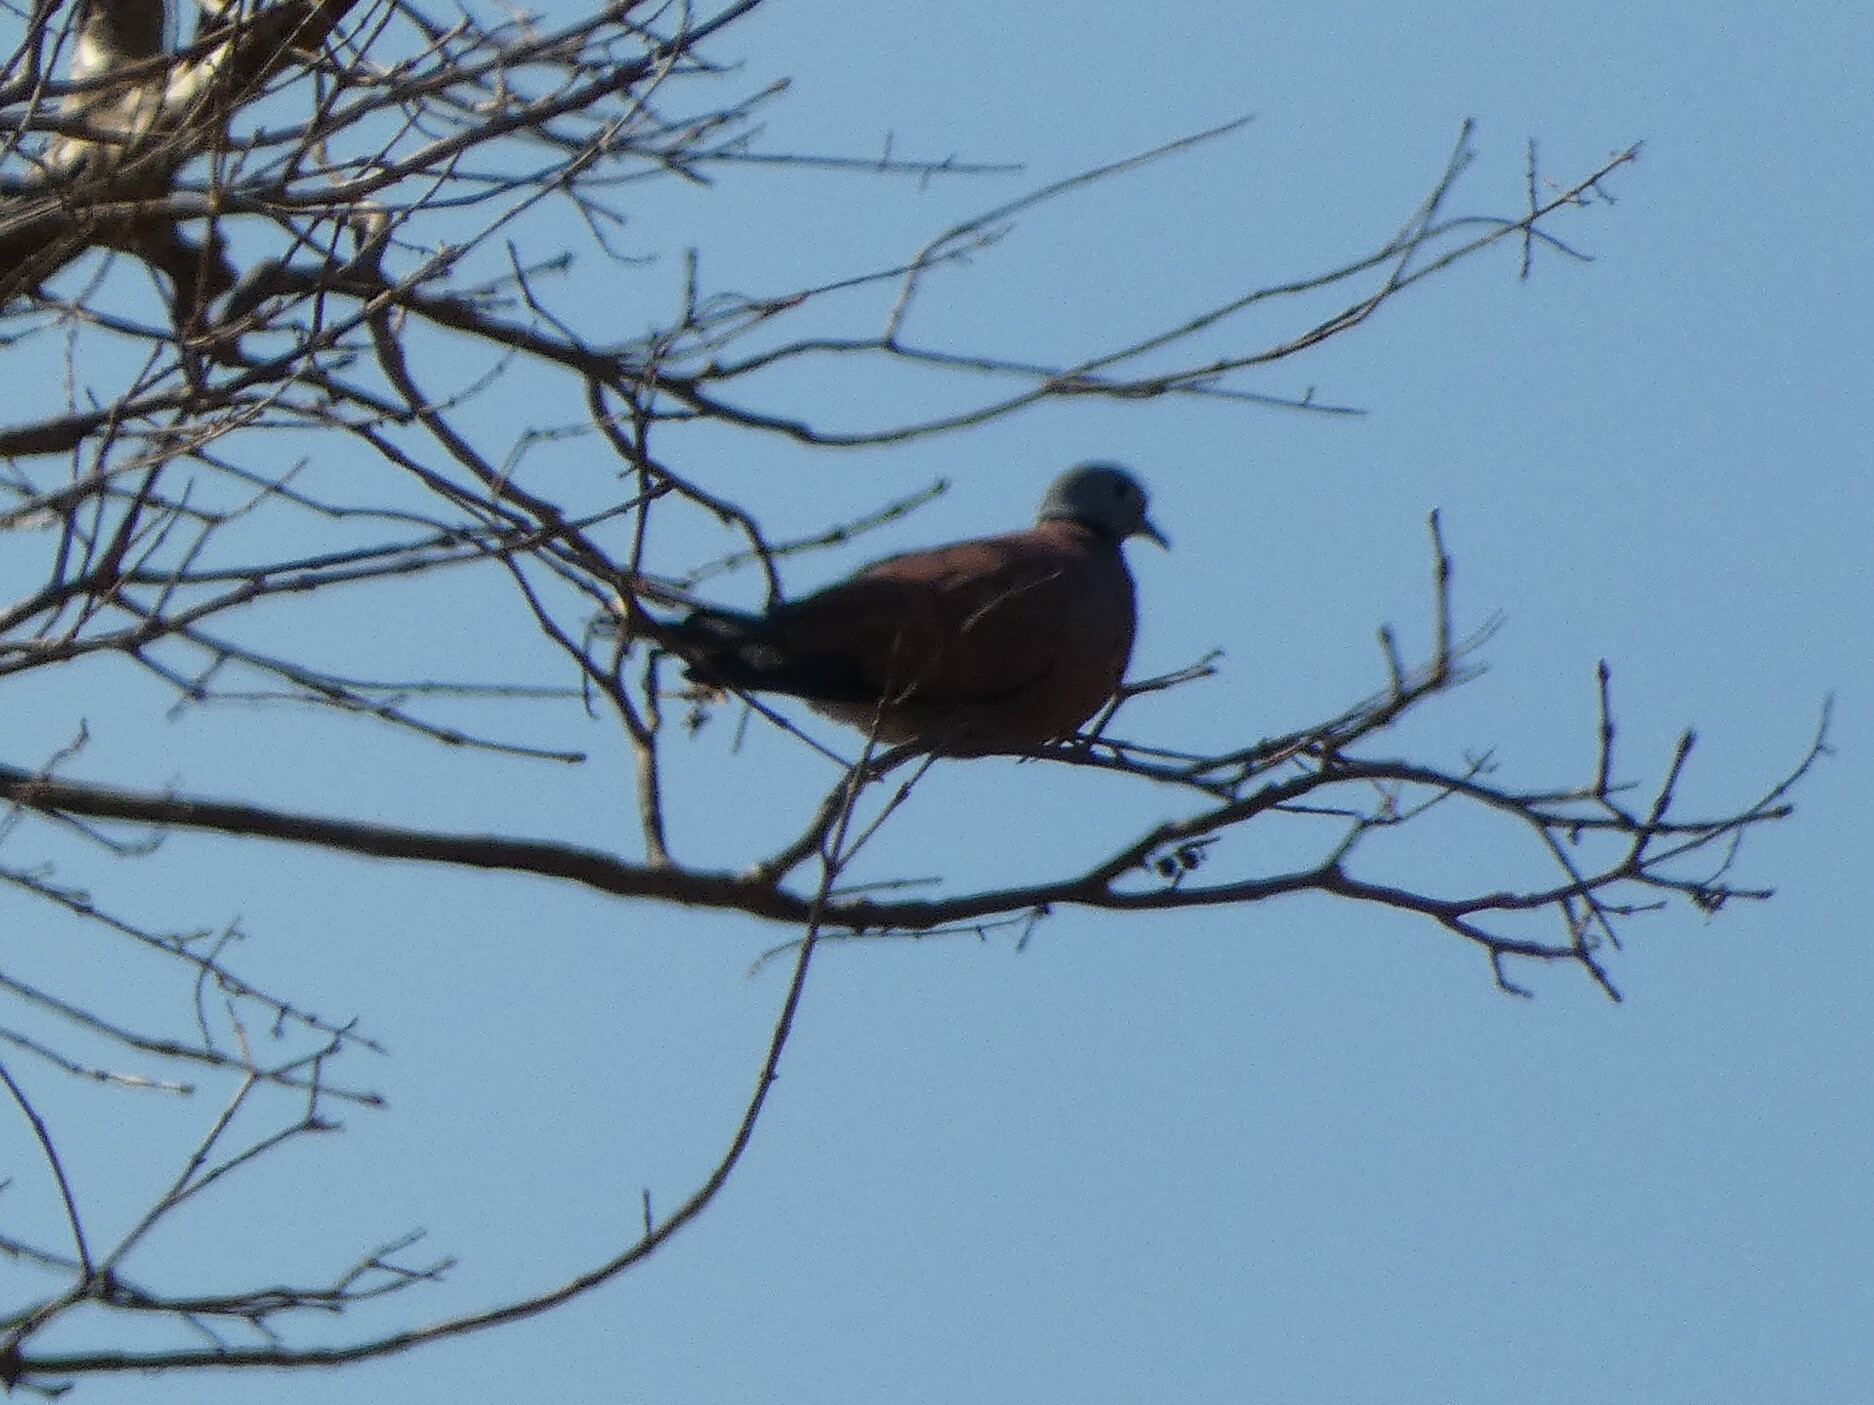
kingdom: Animalia
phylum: Chordata
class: Aves
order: Columbiformes
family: Columbidae
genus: Streptopelia
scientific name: Streptopelia tranquebarica
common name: Red turtle dove
